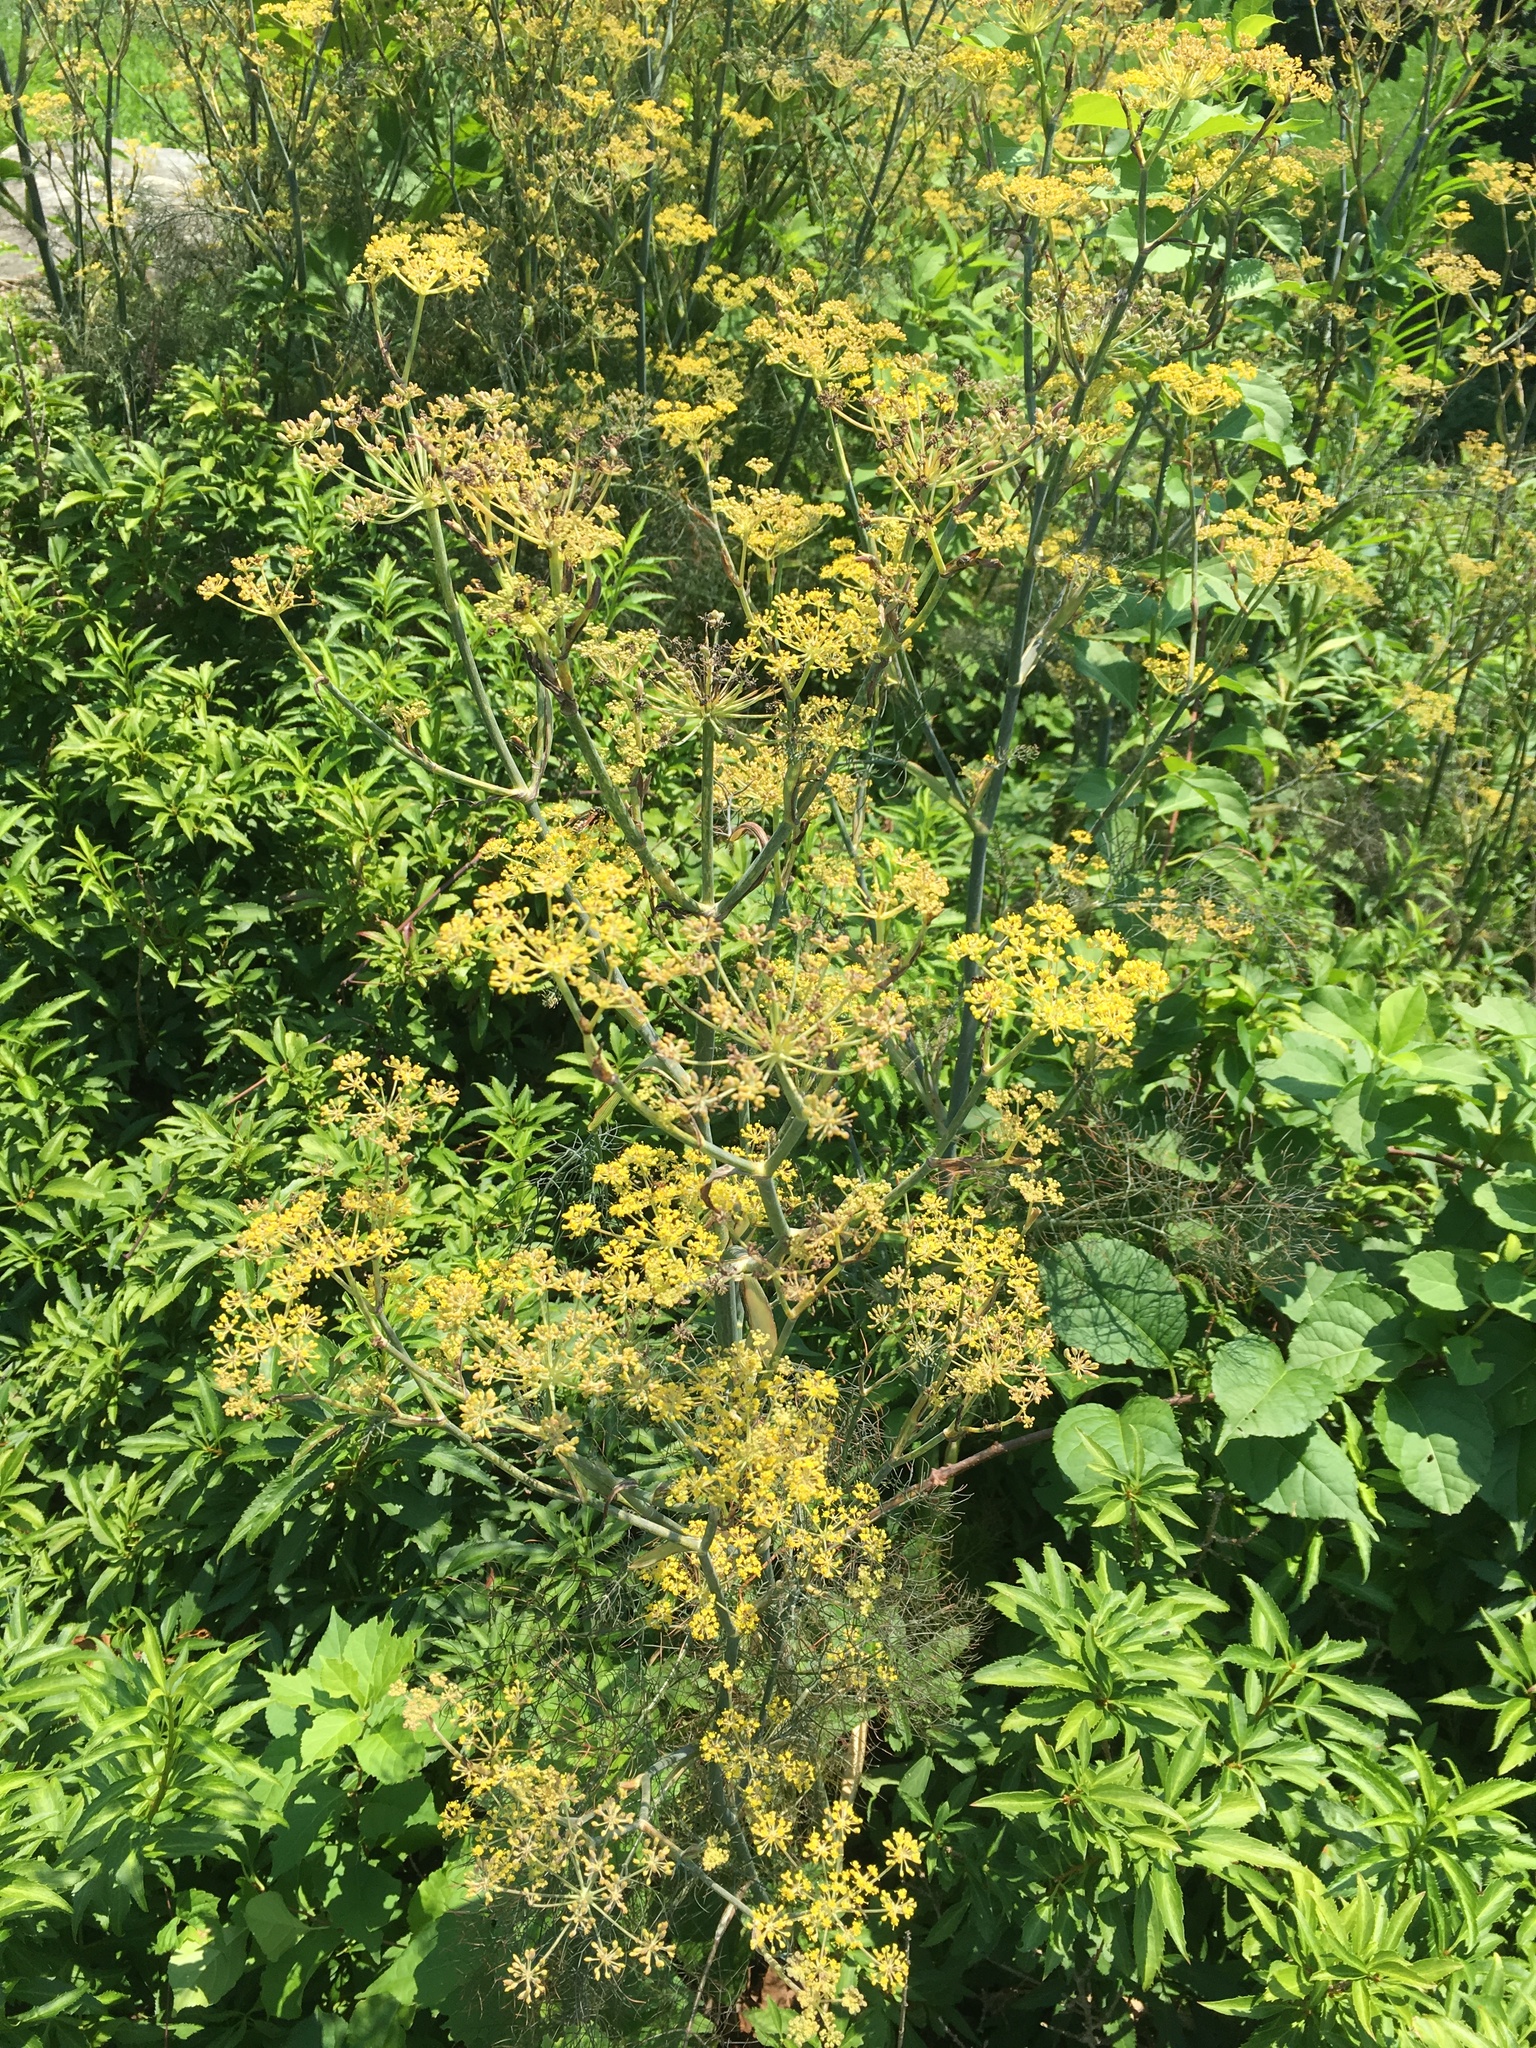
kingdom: Plantae
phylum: Tracheophyta
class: Magnoliopsida
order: Apiales
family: Apiaceae
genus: Foeniculum
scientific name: Foeniculum vulgare
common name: Fennel
